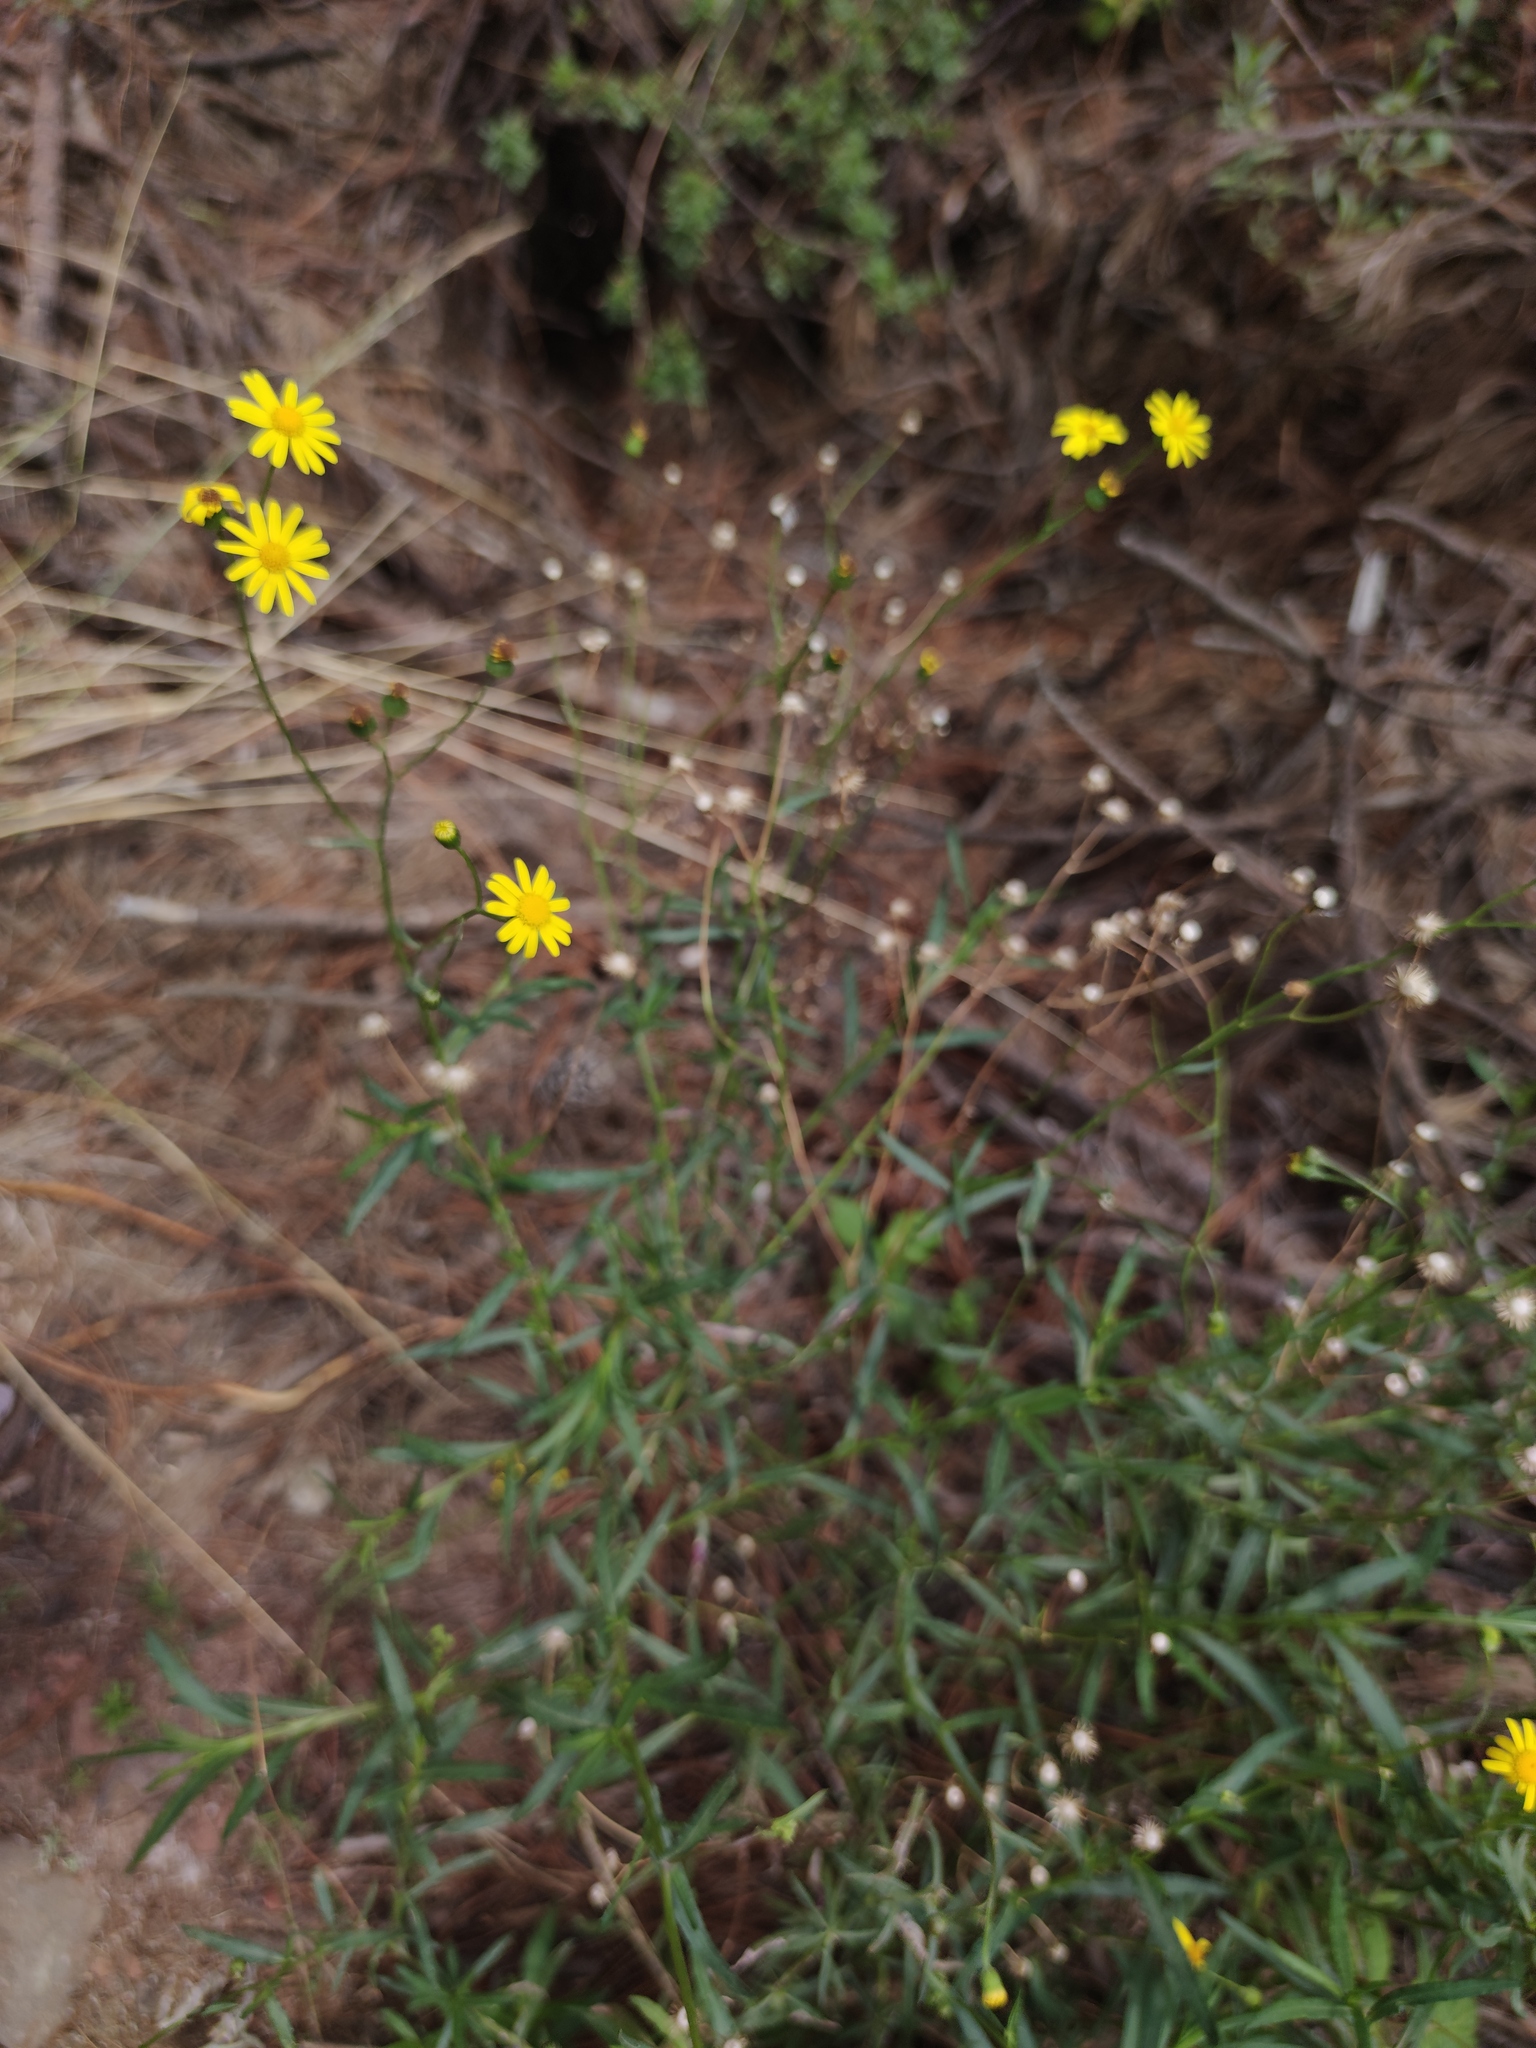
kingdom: Plantae
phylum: Tracheophyta
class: Magnoliopsida
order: Asterales
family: Asteraceae
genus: Senecio
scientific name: Senecio inaequidens
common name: Narrow-leaved ragwort
